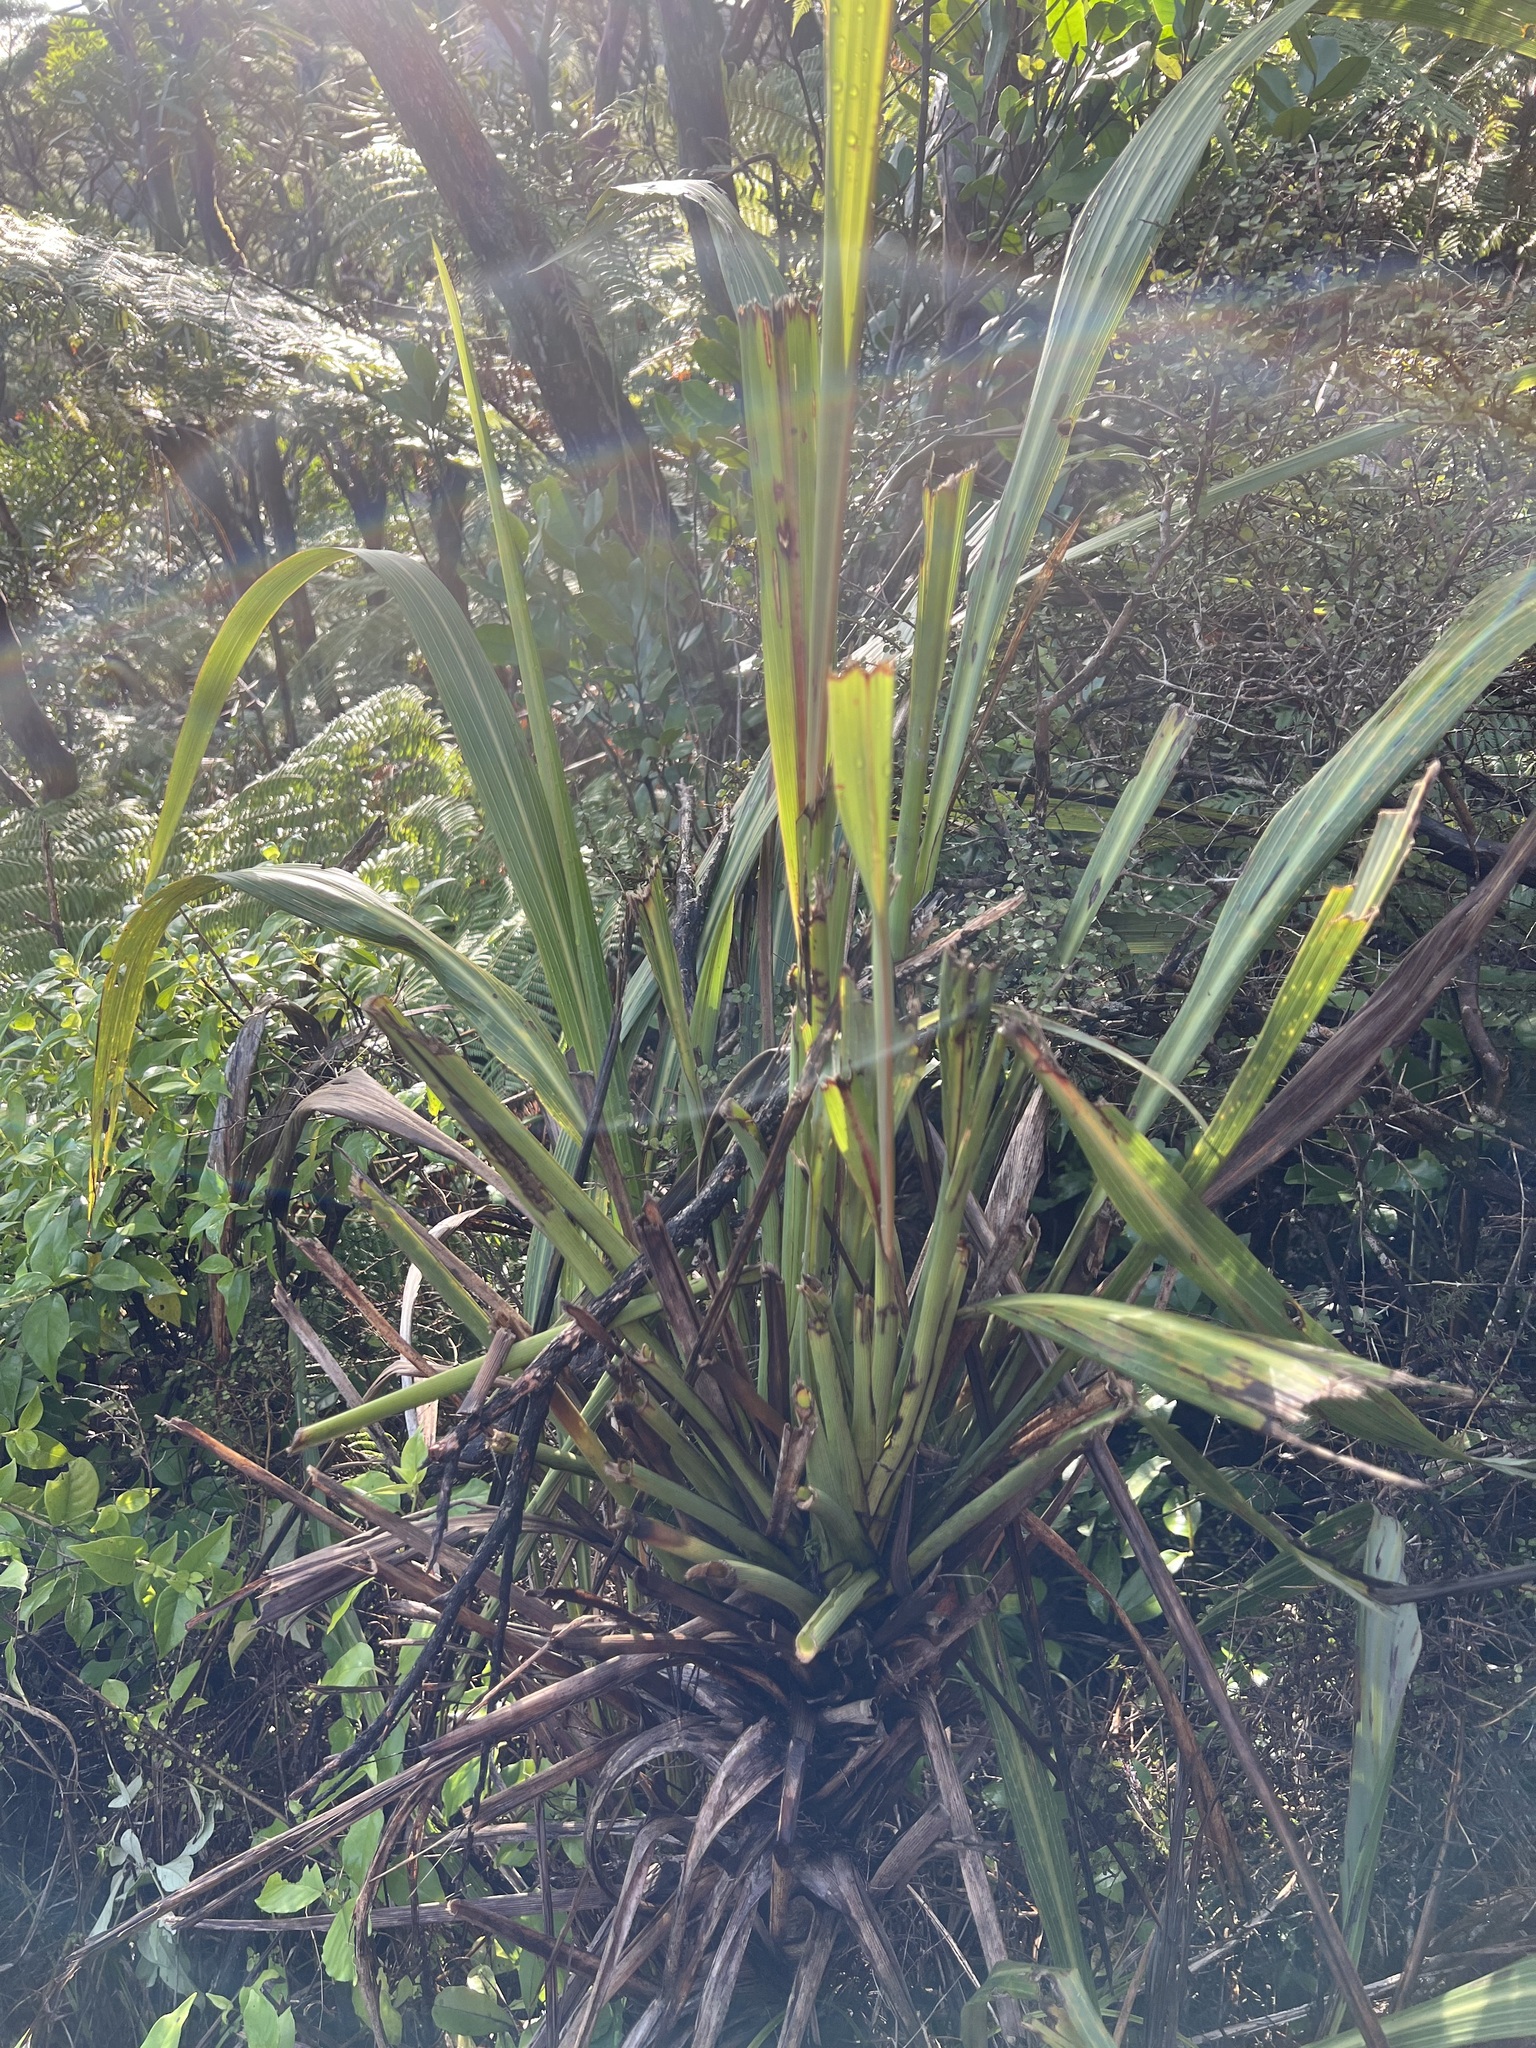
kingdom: Plantae
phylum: Tracheophyta
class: Liliopsida
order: Asparagales
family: Asparagaceae
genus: Cordyline
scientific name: Cordyline banksii
